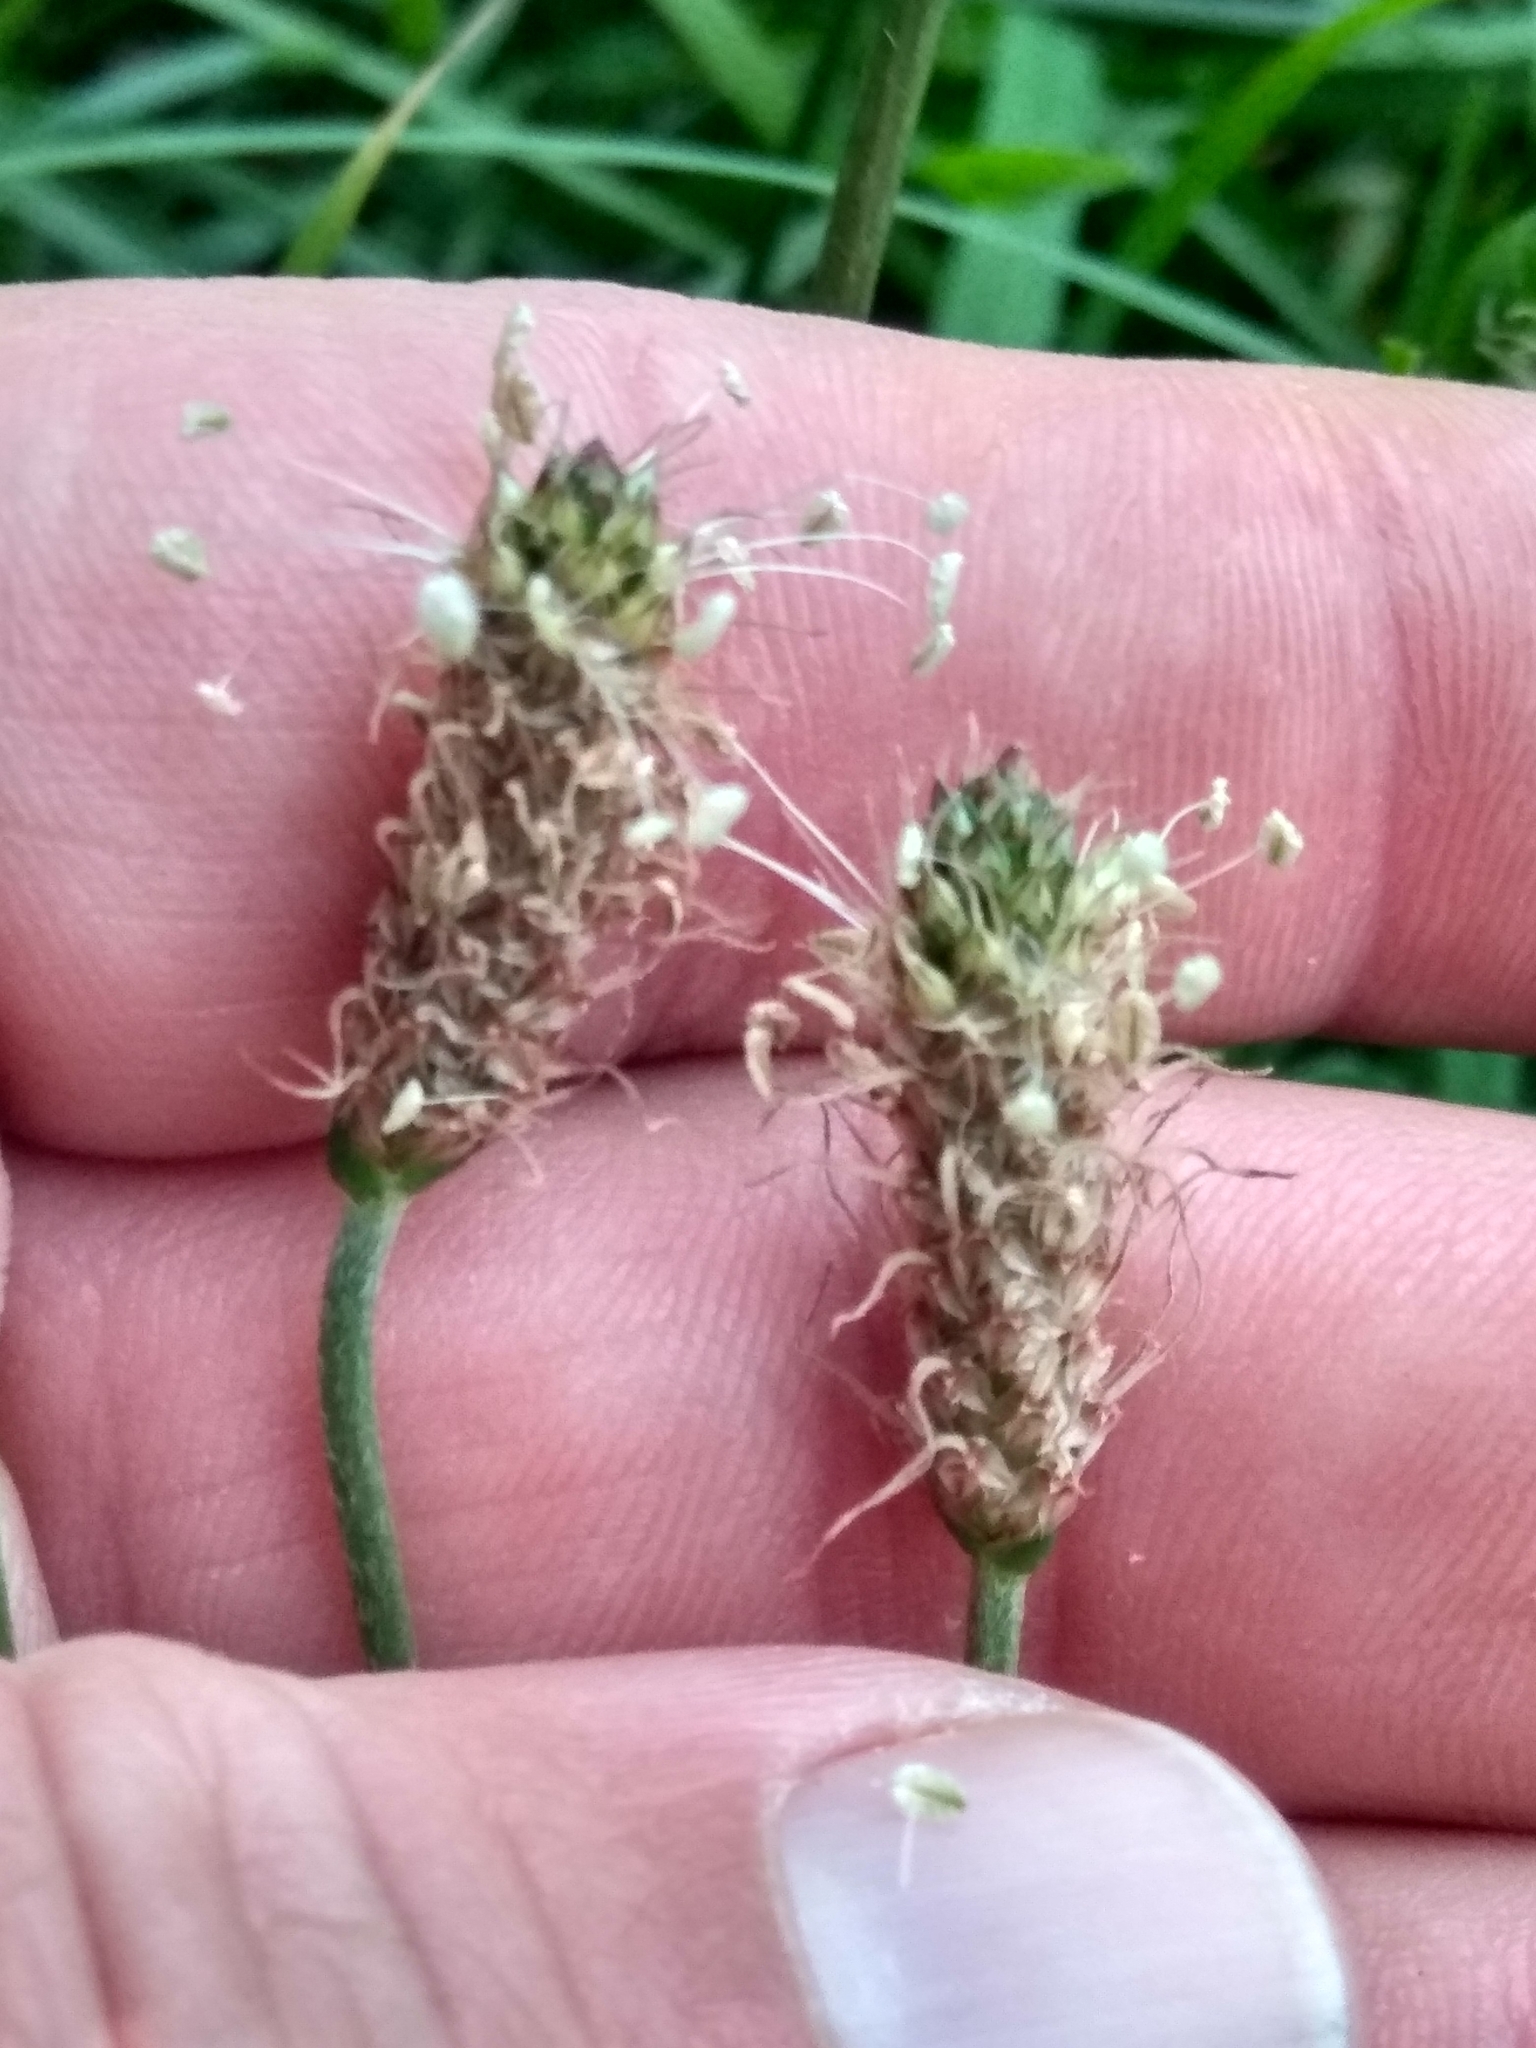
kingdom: Plantae
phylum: Tracheophyta
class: Magnoliopsida
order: Lamiales
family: Plantaginaceae
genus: Plantago
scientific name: Plantago lanceolata
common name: Ribwort plantain
